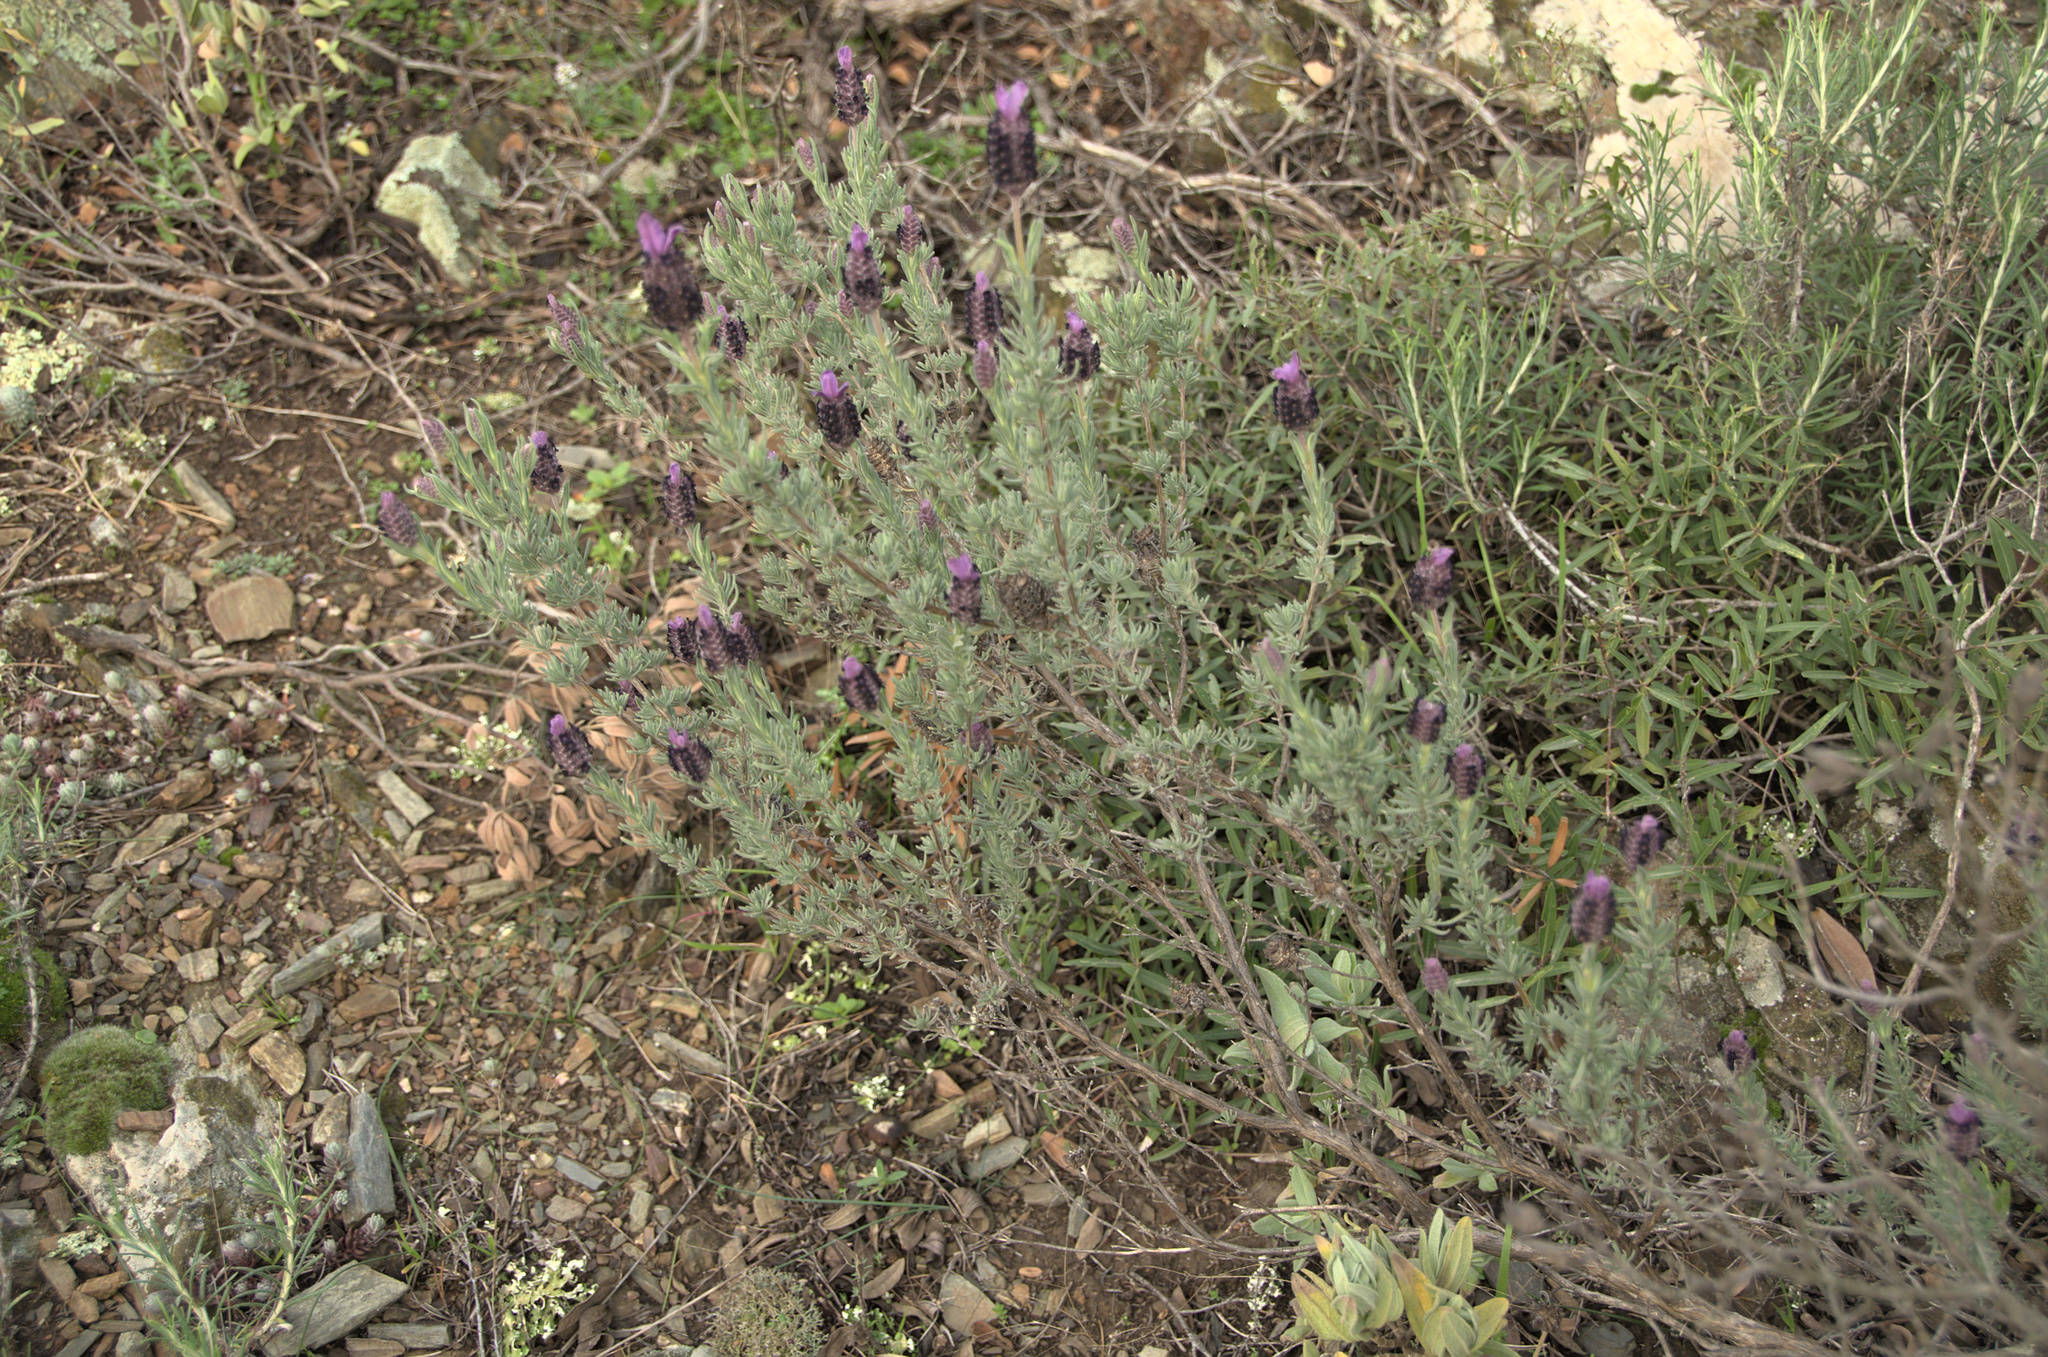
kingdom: Plantae
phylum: Tracheophyta
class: Magnoliopsida
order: Lamiales
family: Lamiaceae
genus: Lavandula
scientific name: Lavandula stoechas
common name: French lavender
